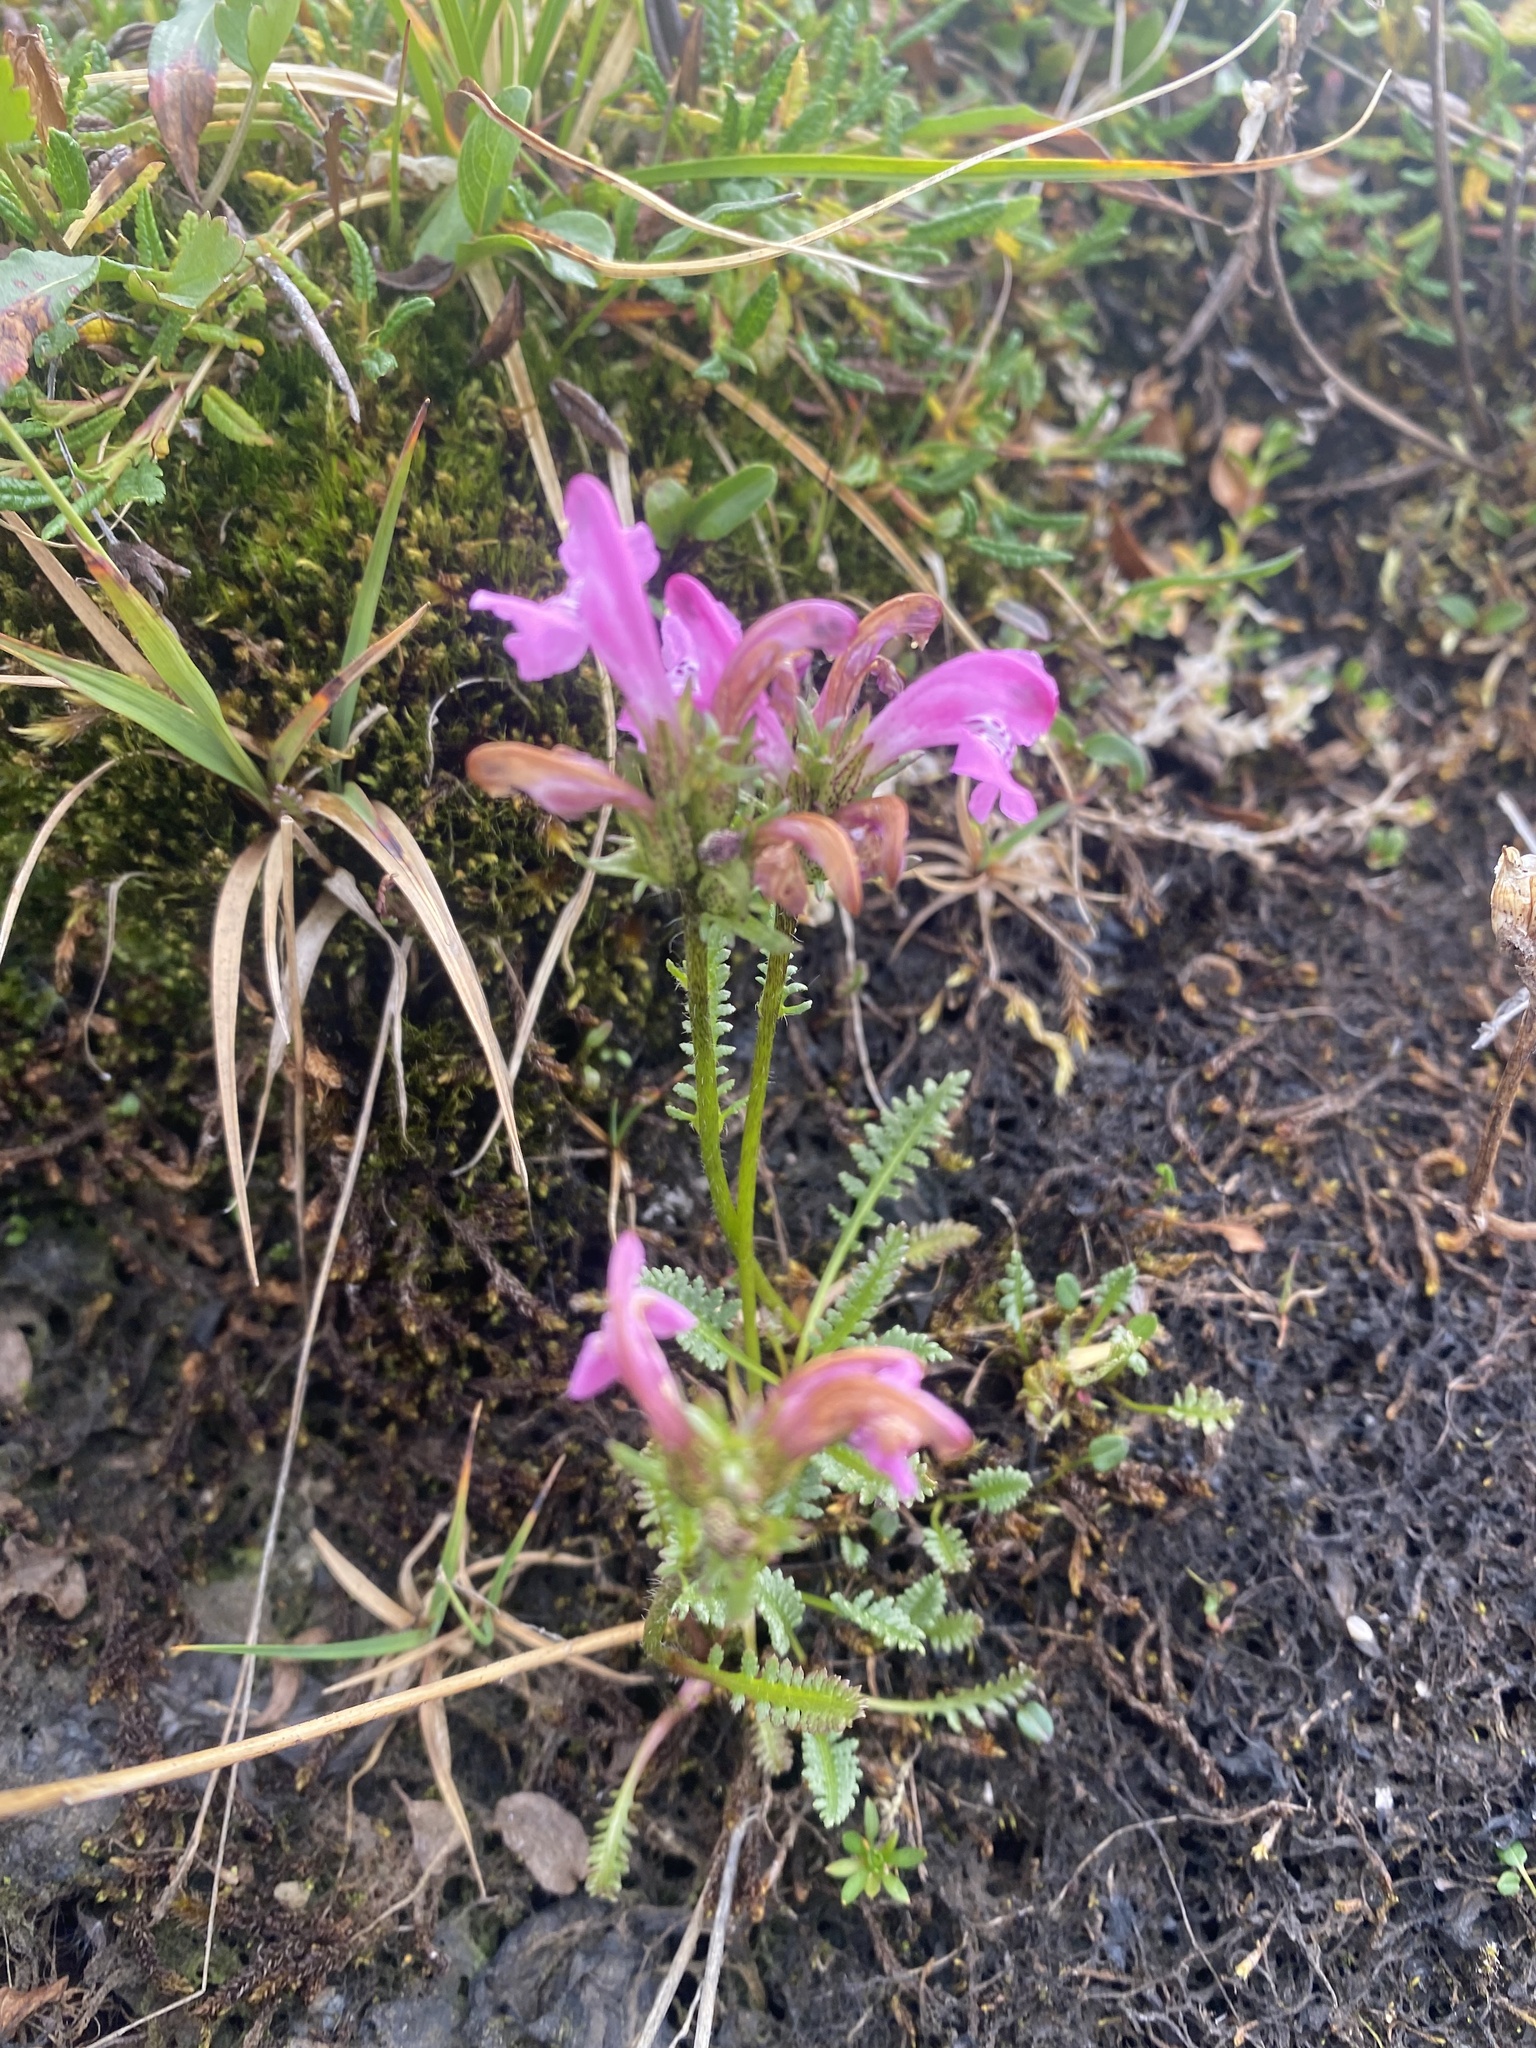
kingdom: Plantae
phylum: Tracheophyta
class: Magnoliopsida
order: Lamiales
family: Orobanchaceae
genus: Pedicularis
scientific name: Pedicularis interior
